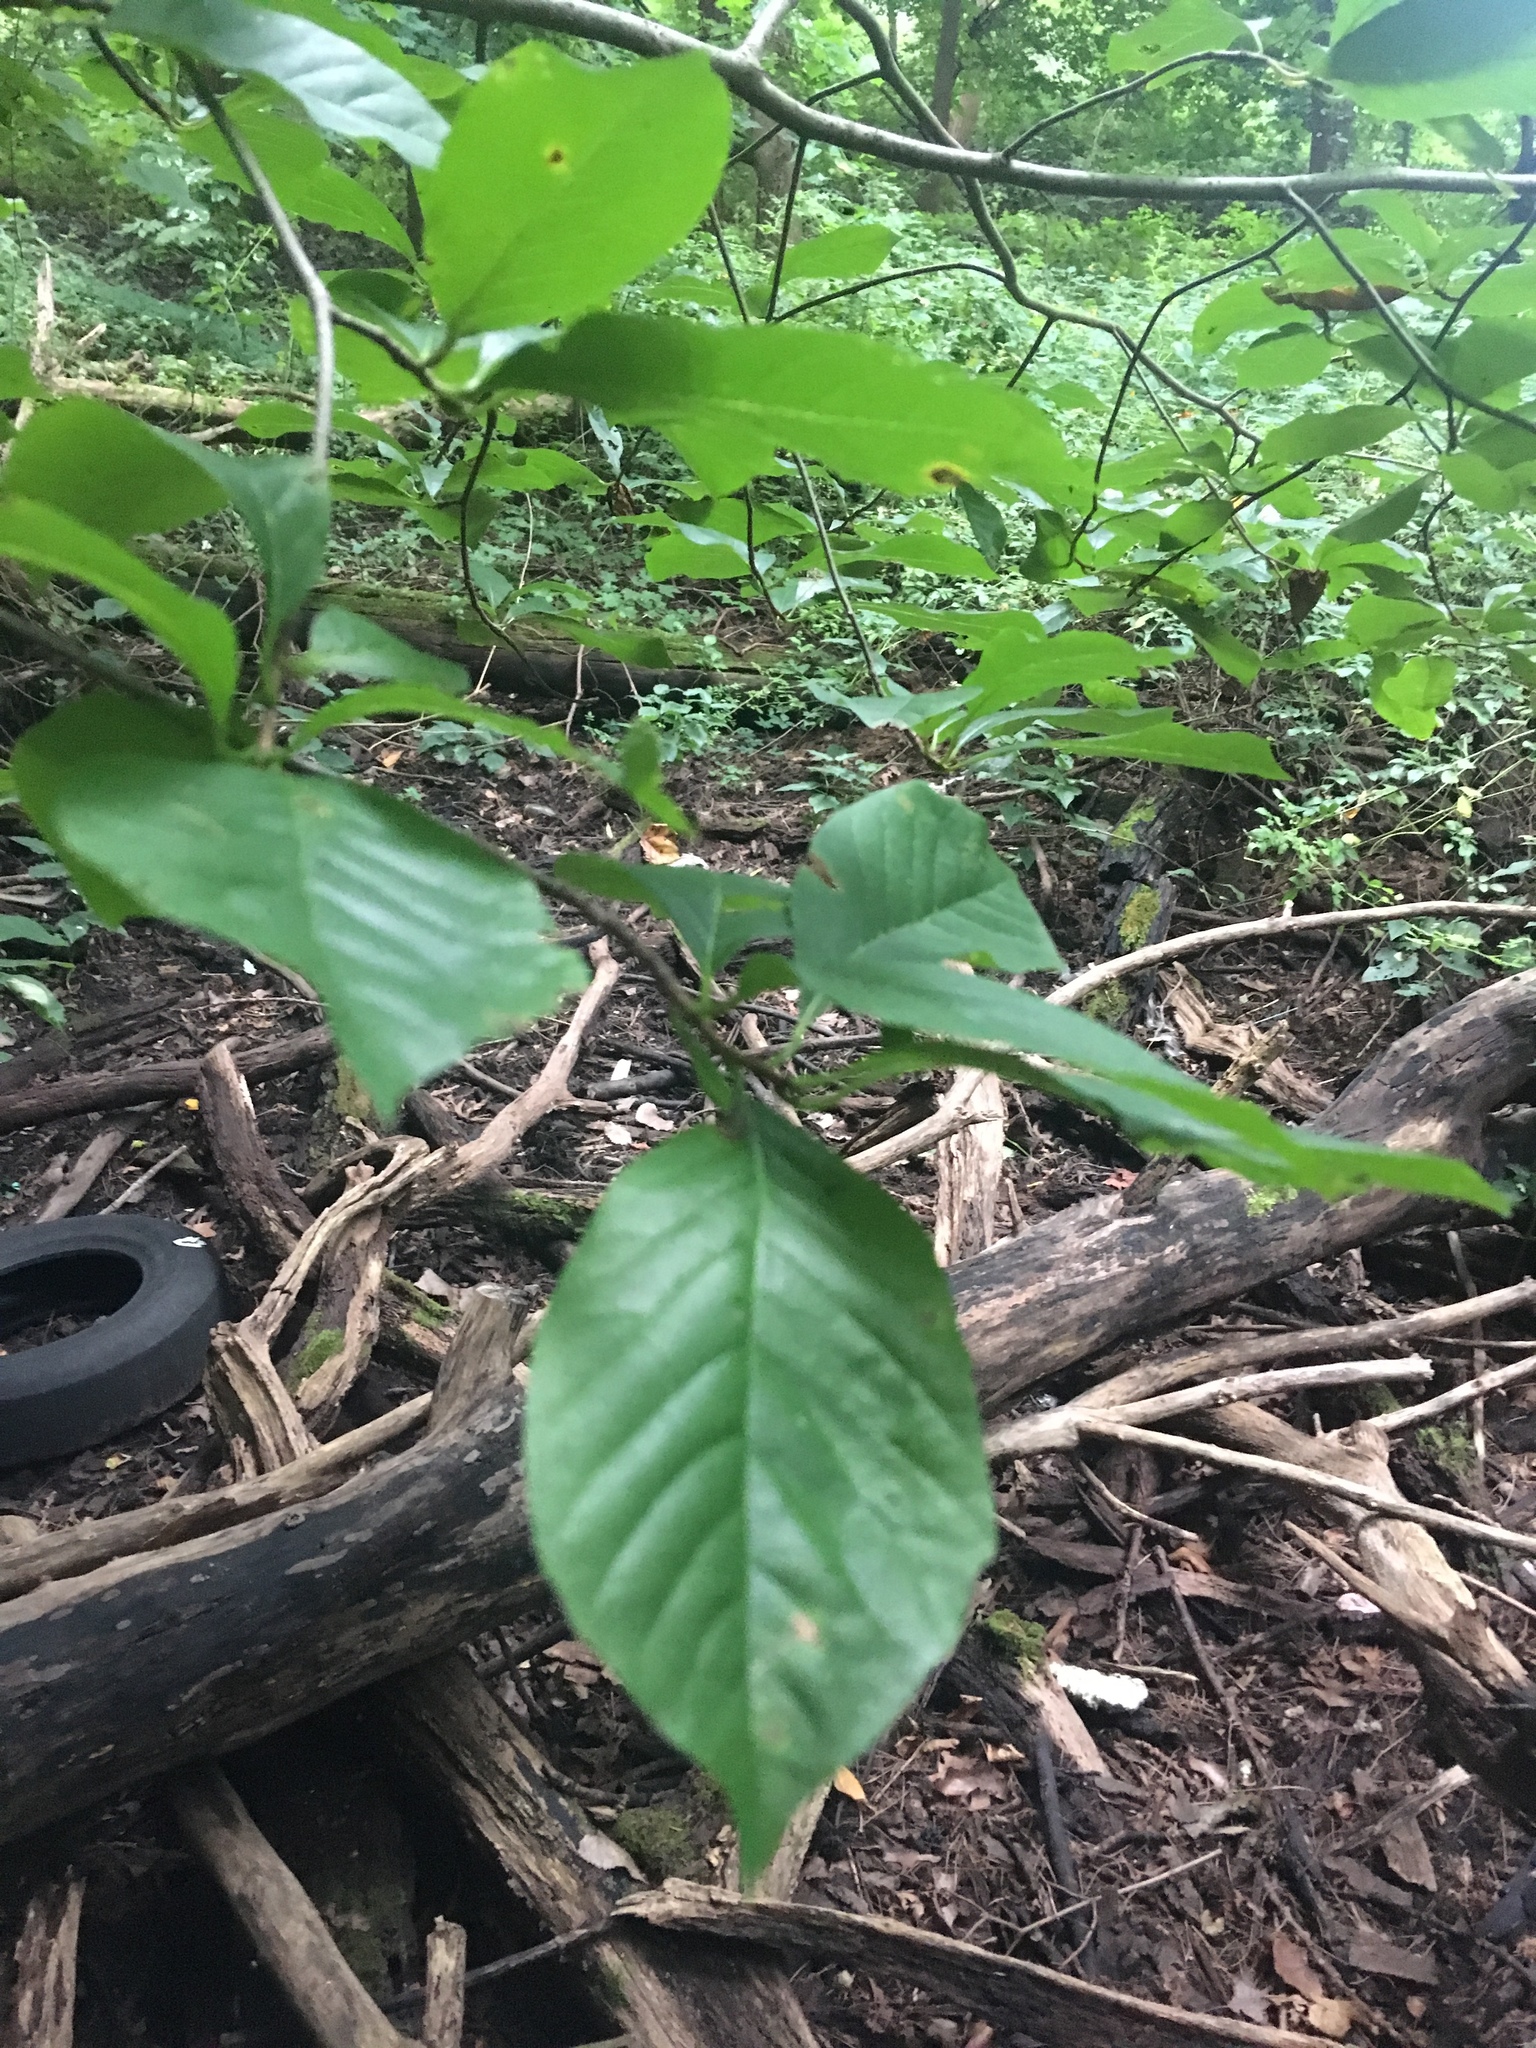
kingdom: Plantae
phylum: Tracheophyta
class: Magnoliopsida
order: Cornales
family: Nyssaceae
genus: Nyssa
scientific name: Nyssa sylvatica
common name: Black tupelo
